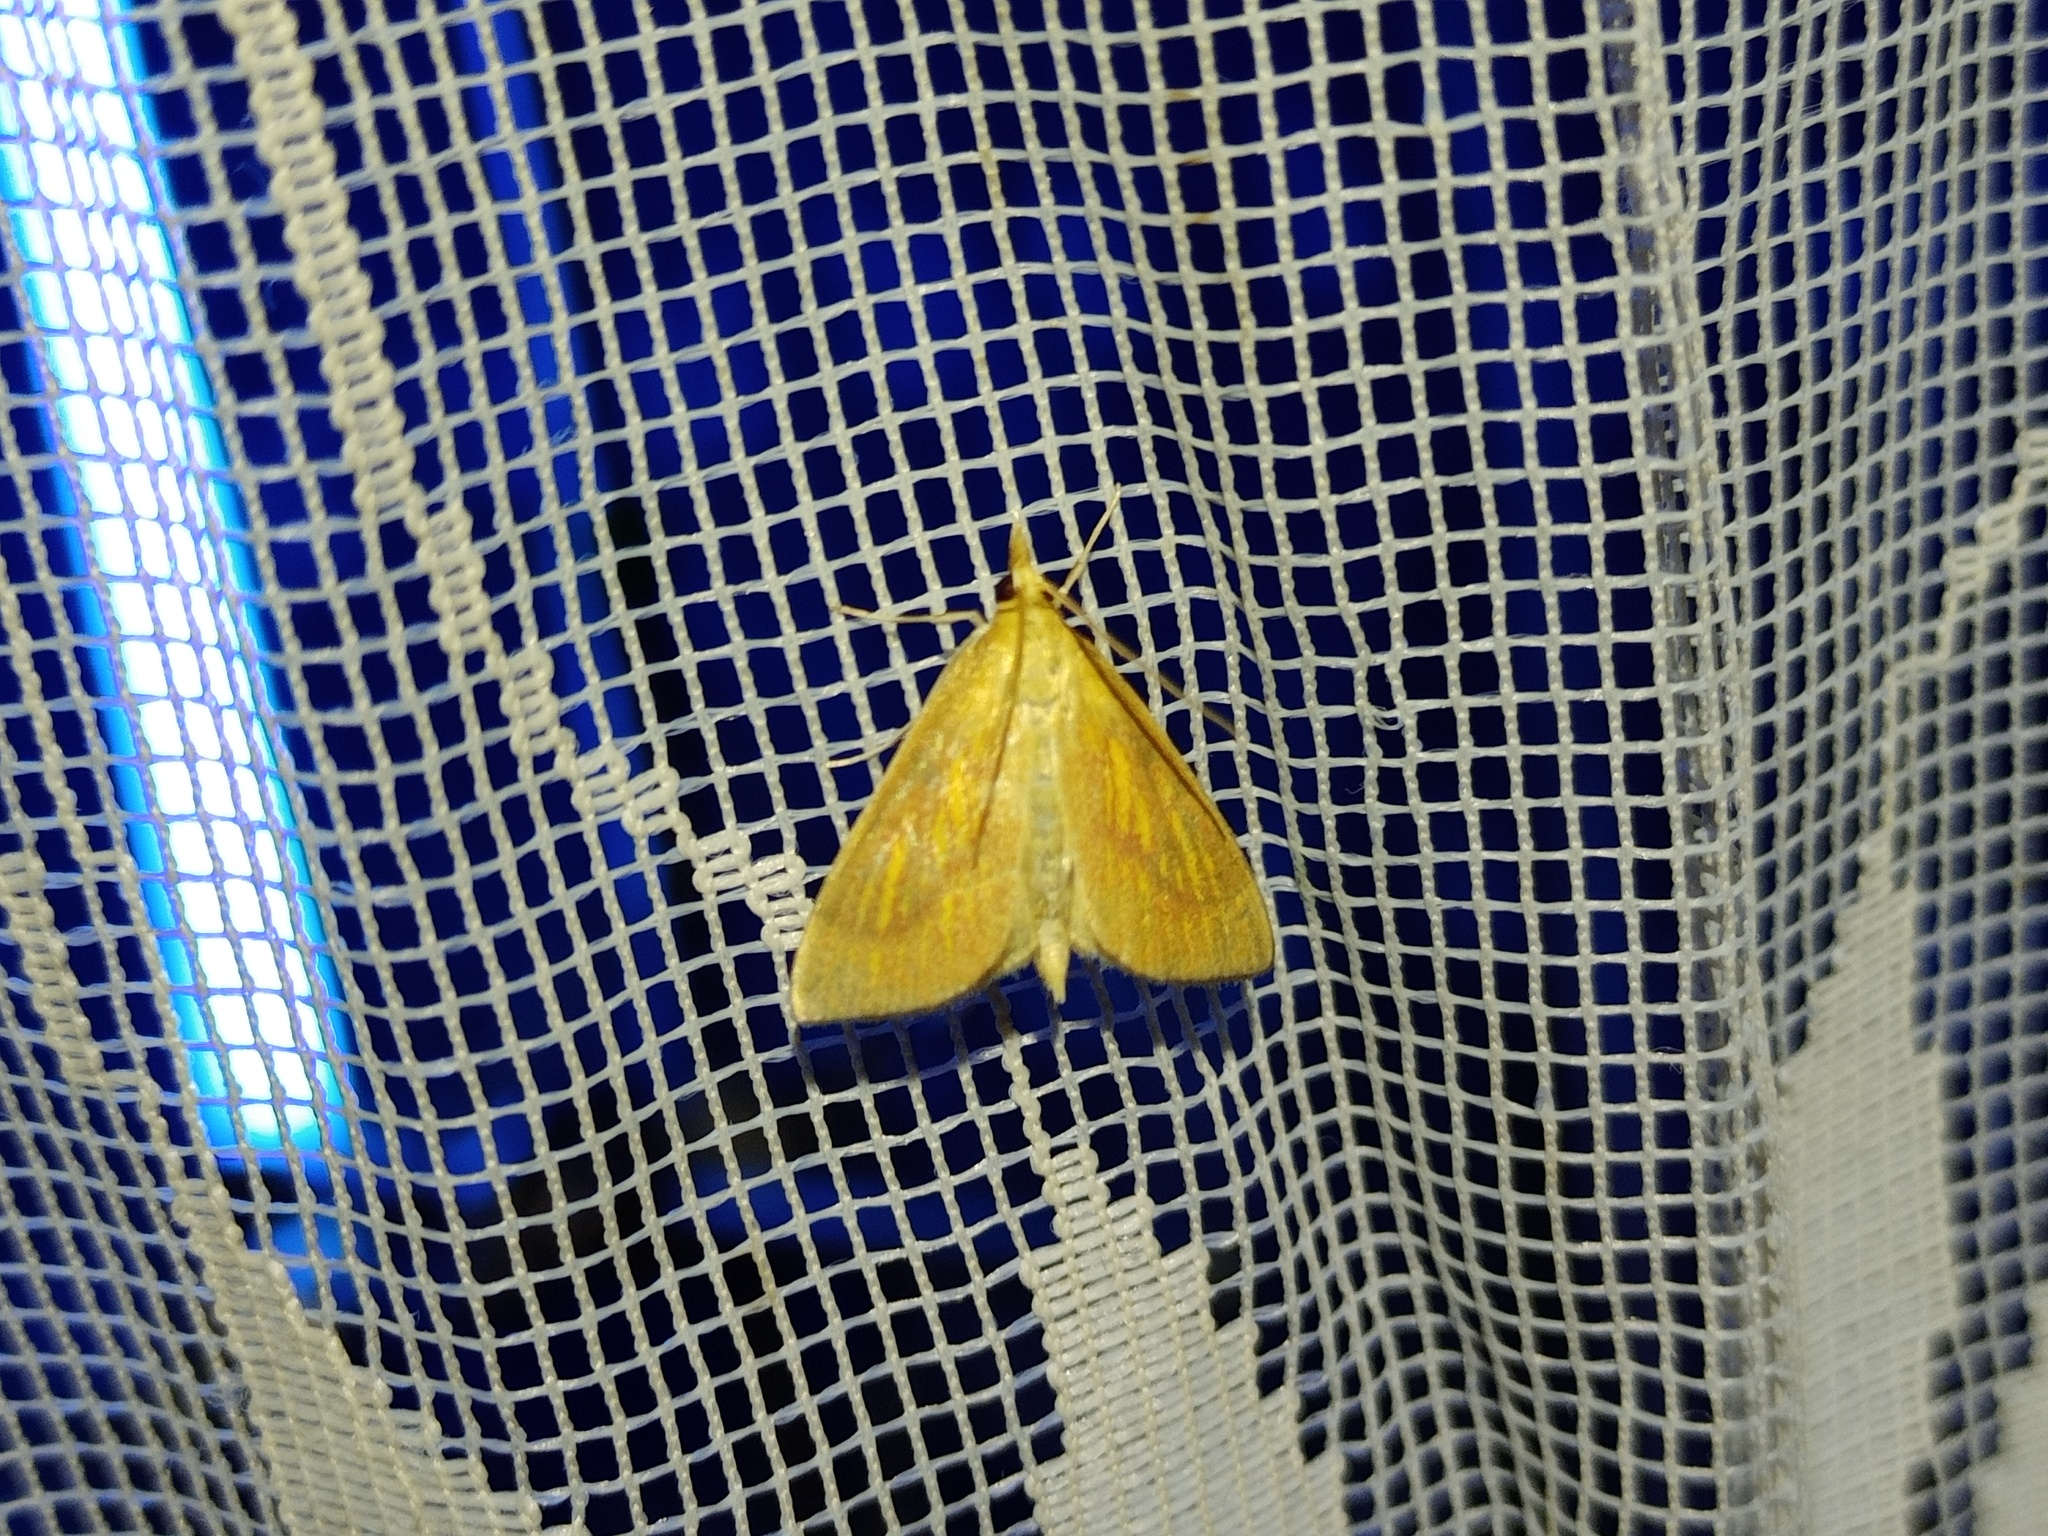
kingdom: Animalia
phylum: Arthropoda
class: Insecta
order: Lepidoptera
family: Crambidae
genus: Nascia
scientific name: Nascia cilialis
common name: Orange-rayed pearl
